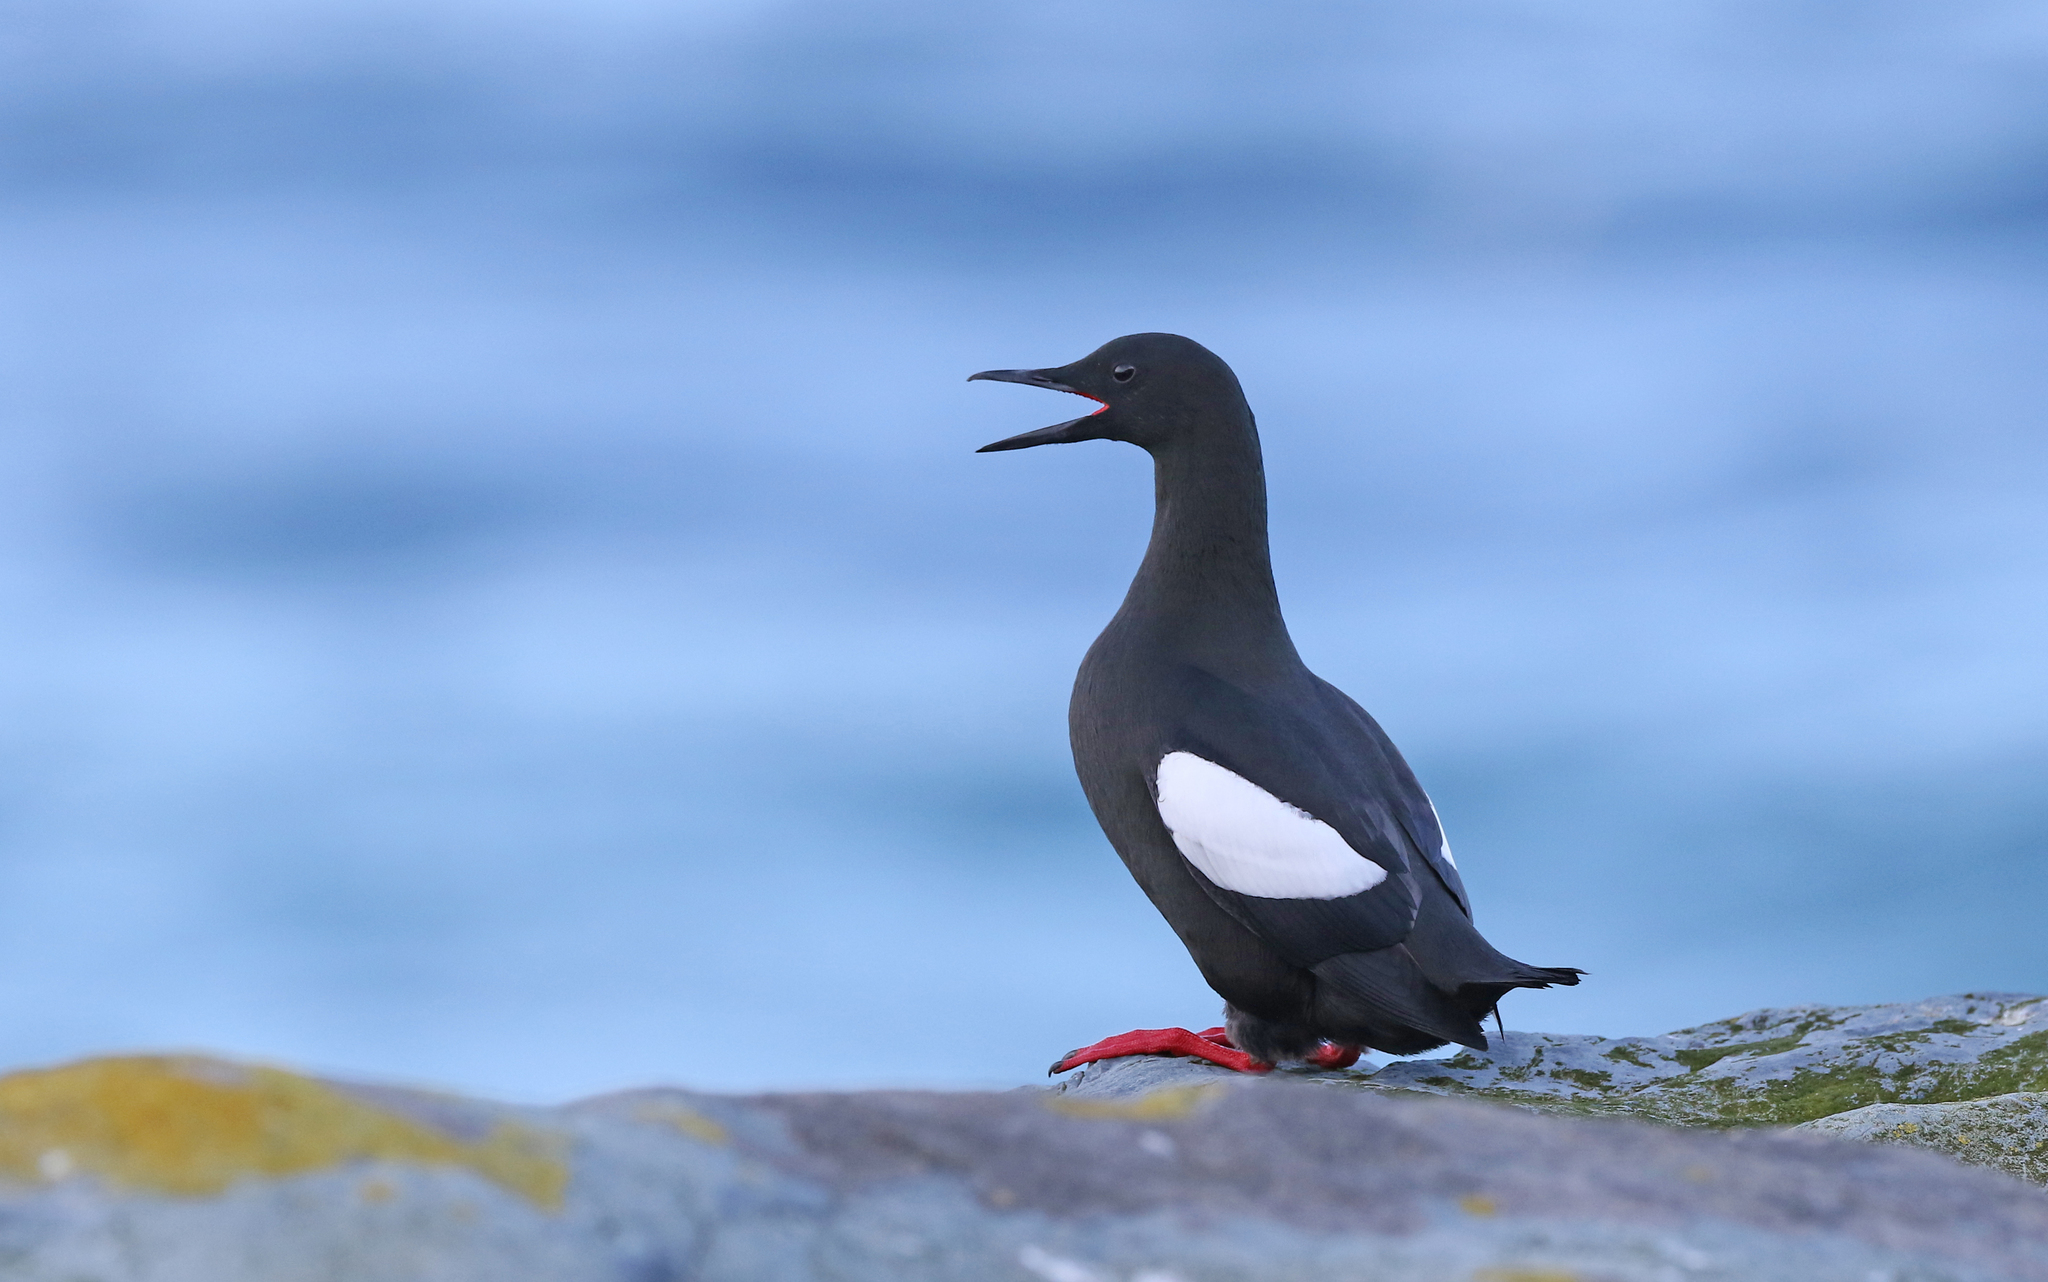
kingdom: Animalia
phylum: Chordata
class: Aves
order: Charadriiformes
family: Alcidae
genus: Cepphus
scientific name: Cepphus grylle
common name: Black guillemot
